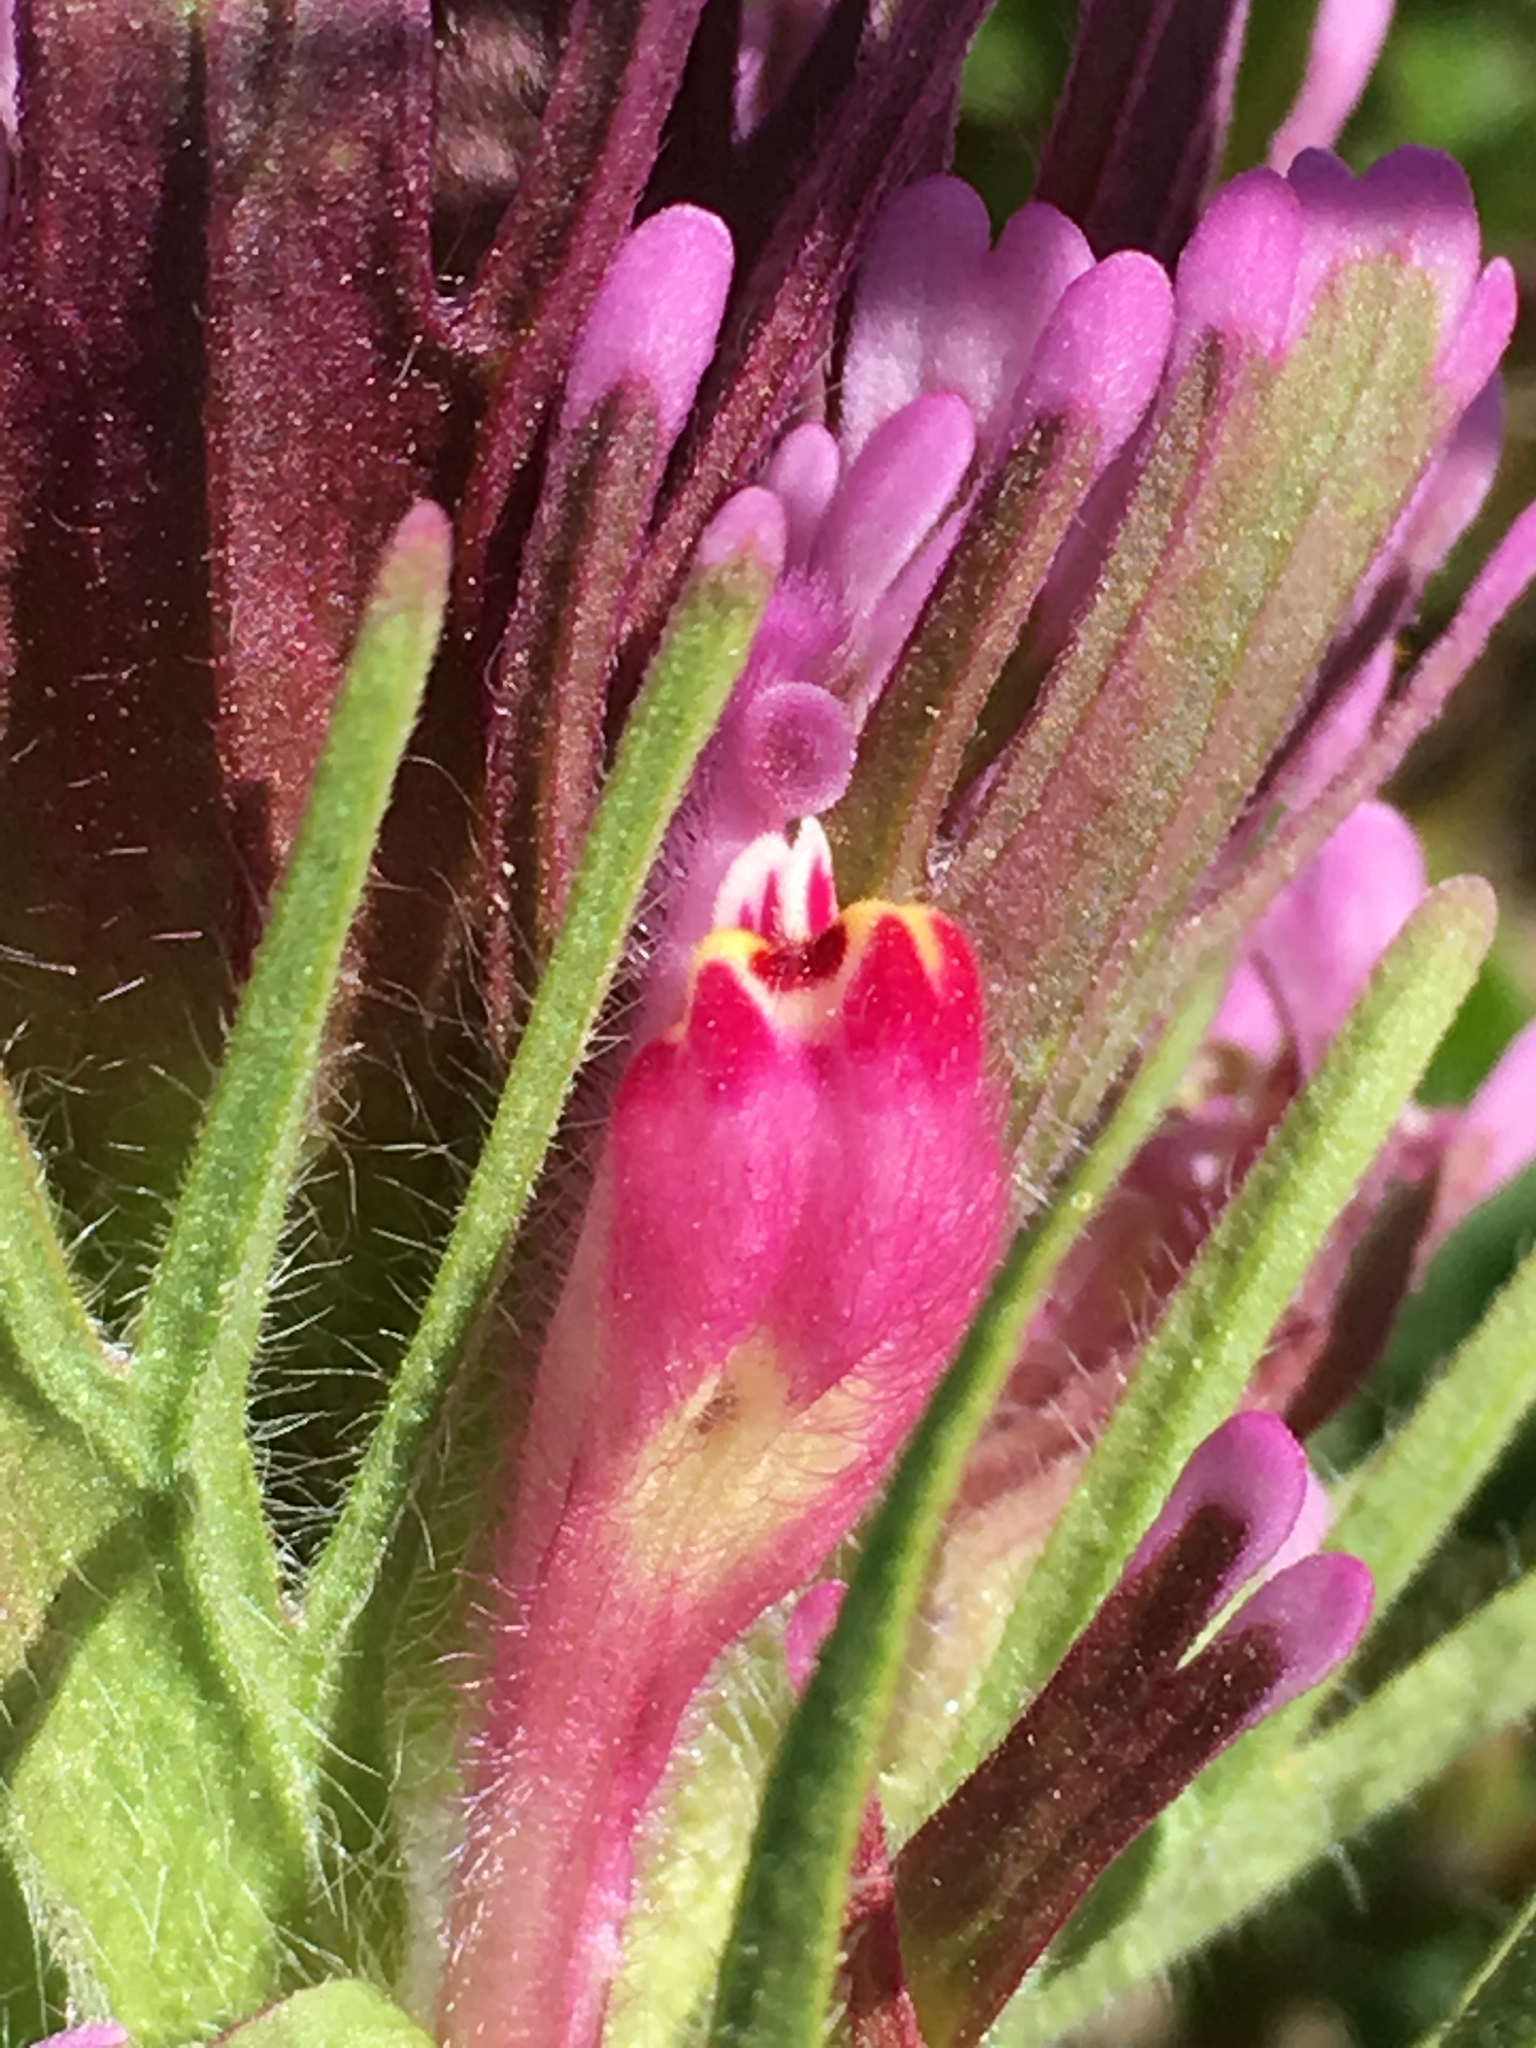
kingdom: Plantae
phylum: Tracheophyta
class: Magnoliopsida
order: Lamiales
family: Orobanchaceae
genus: Castilleja
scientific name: Castilleja exserta
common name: Purple owl-clover
